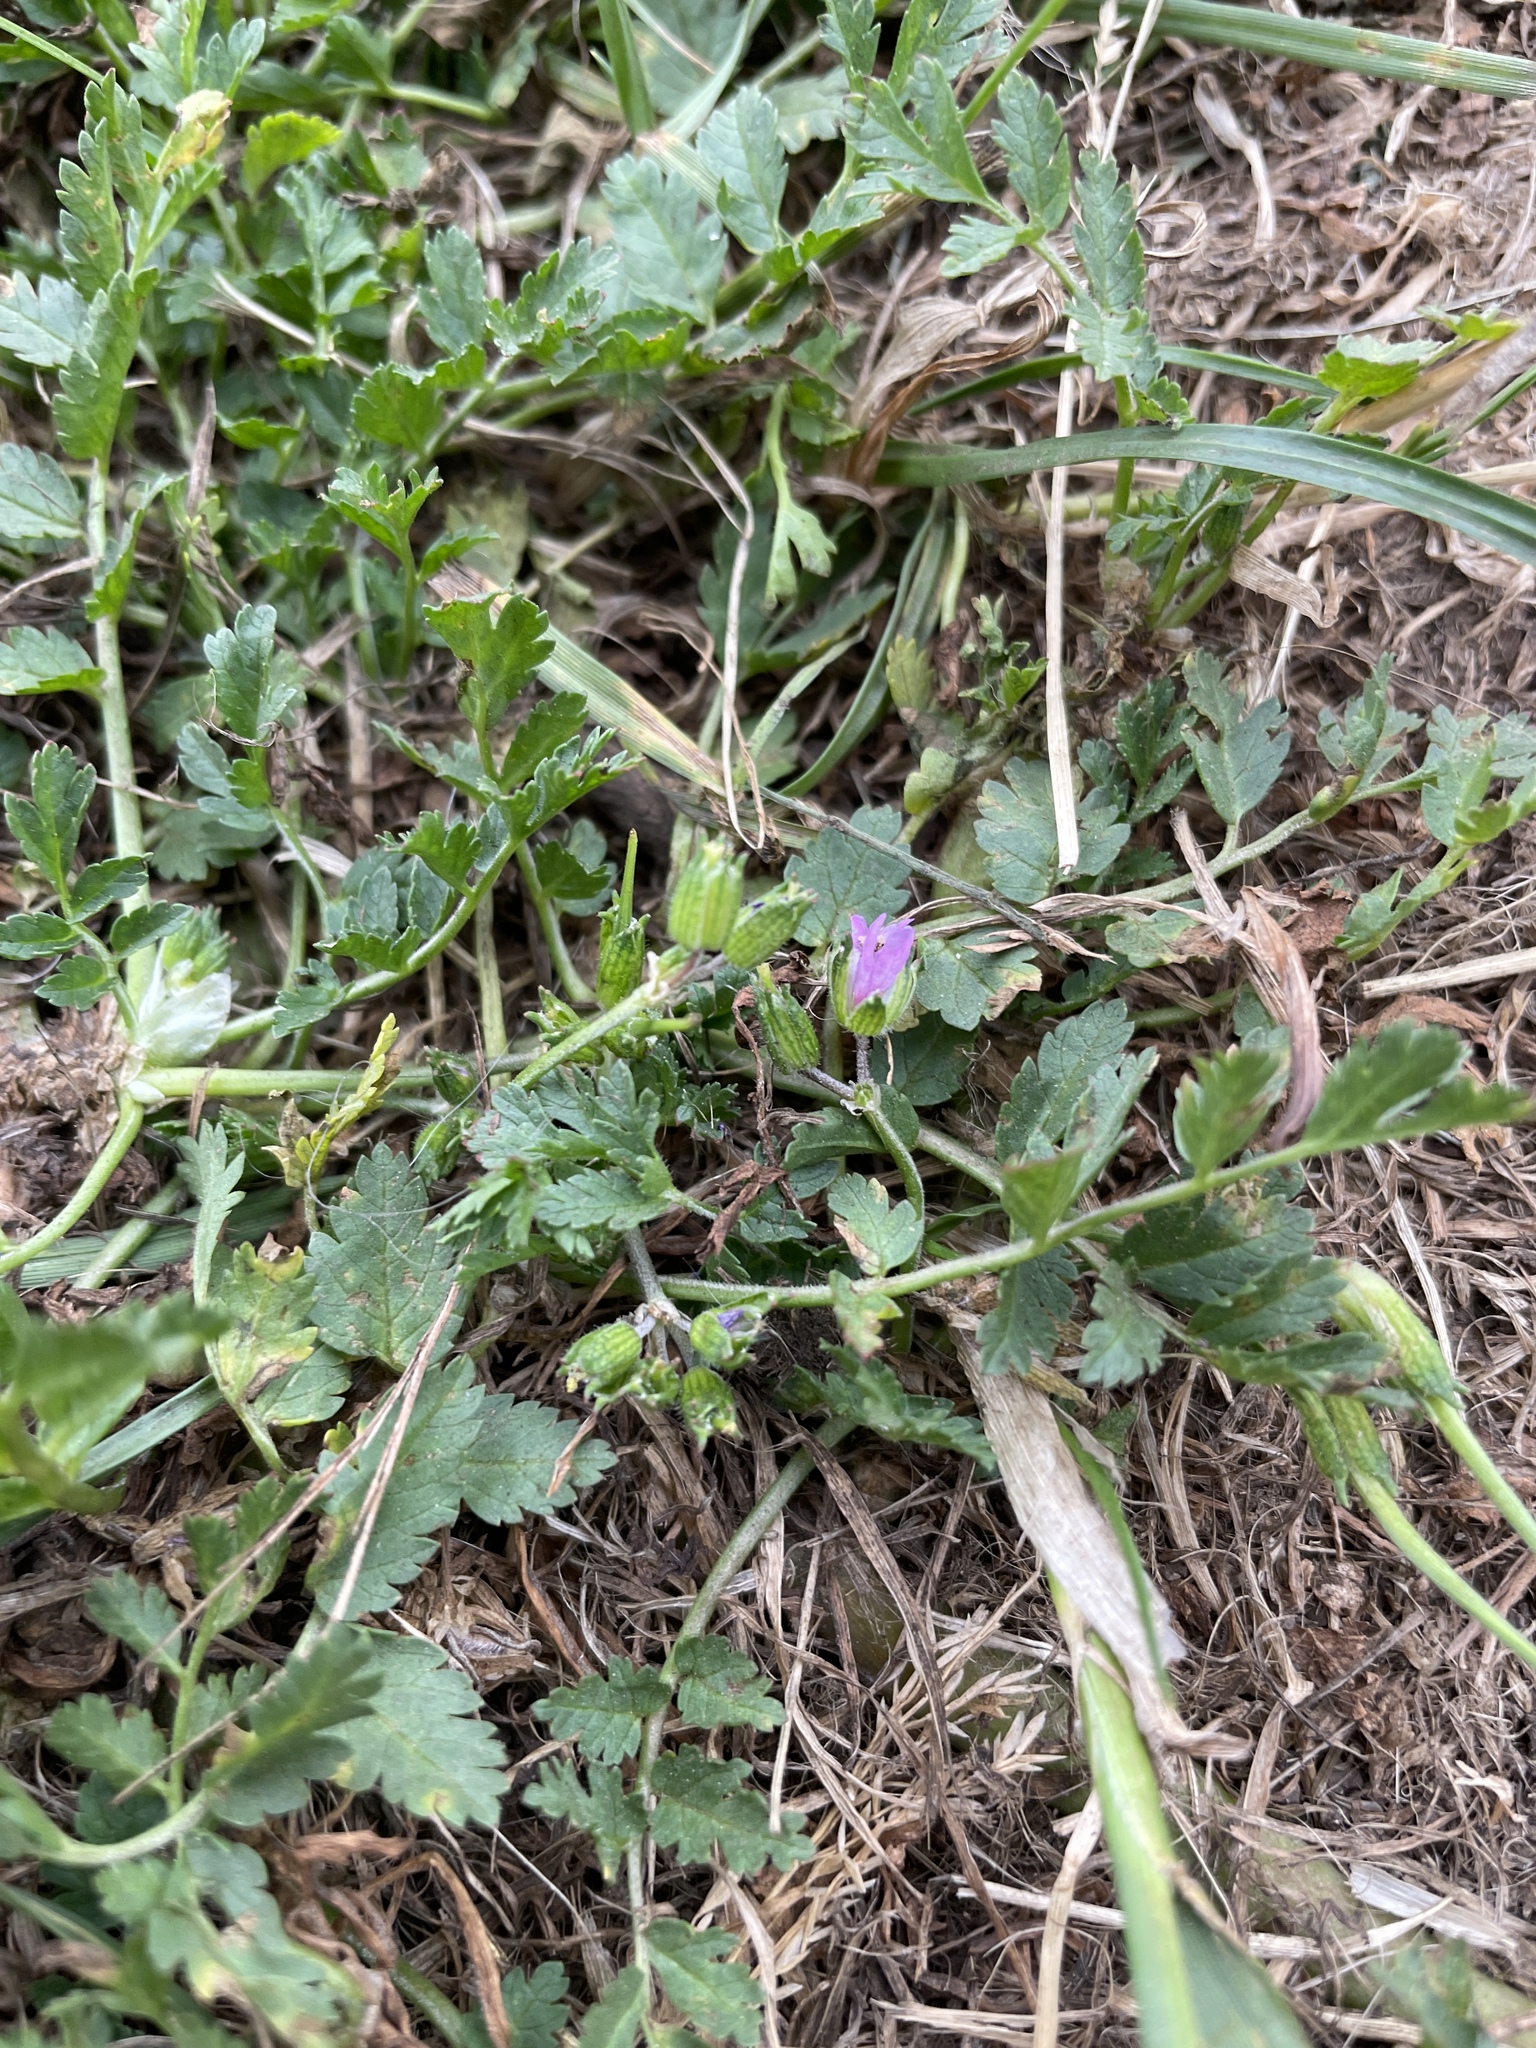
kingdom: Plantae
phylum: Tracheophyta
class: Magnoliopsida
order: Geraniales
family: Geraniaceae
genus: Erodium
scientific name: Erodium moschatum
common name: Musk stork's-bill
